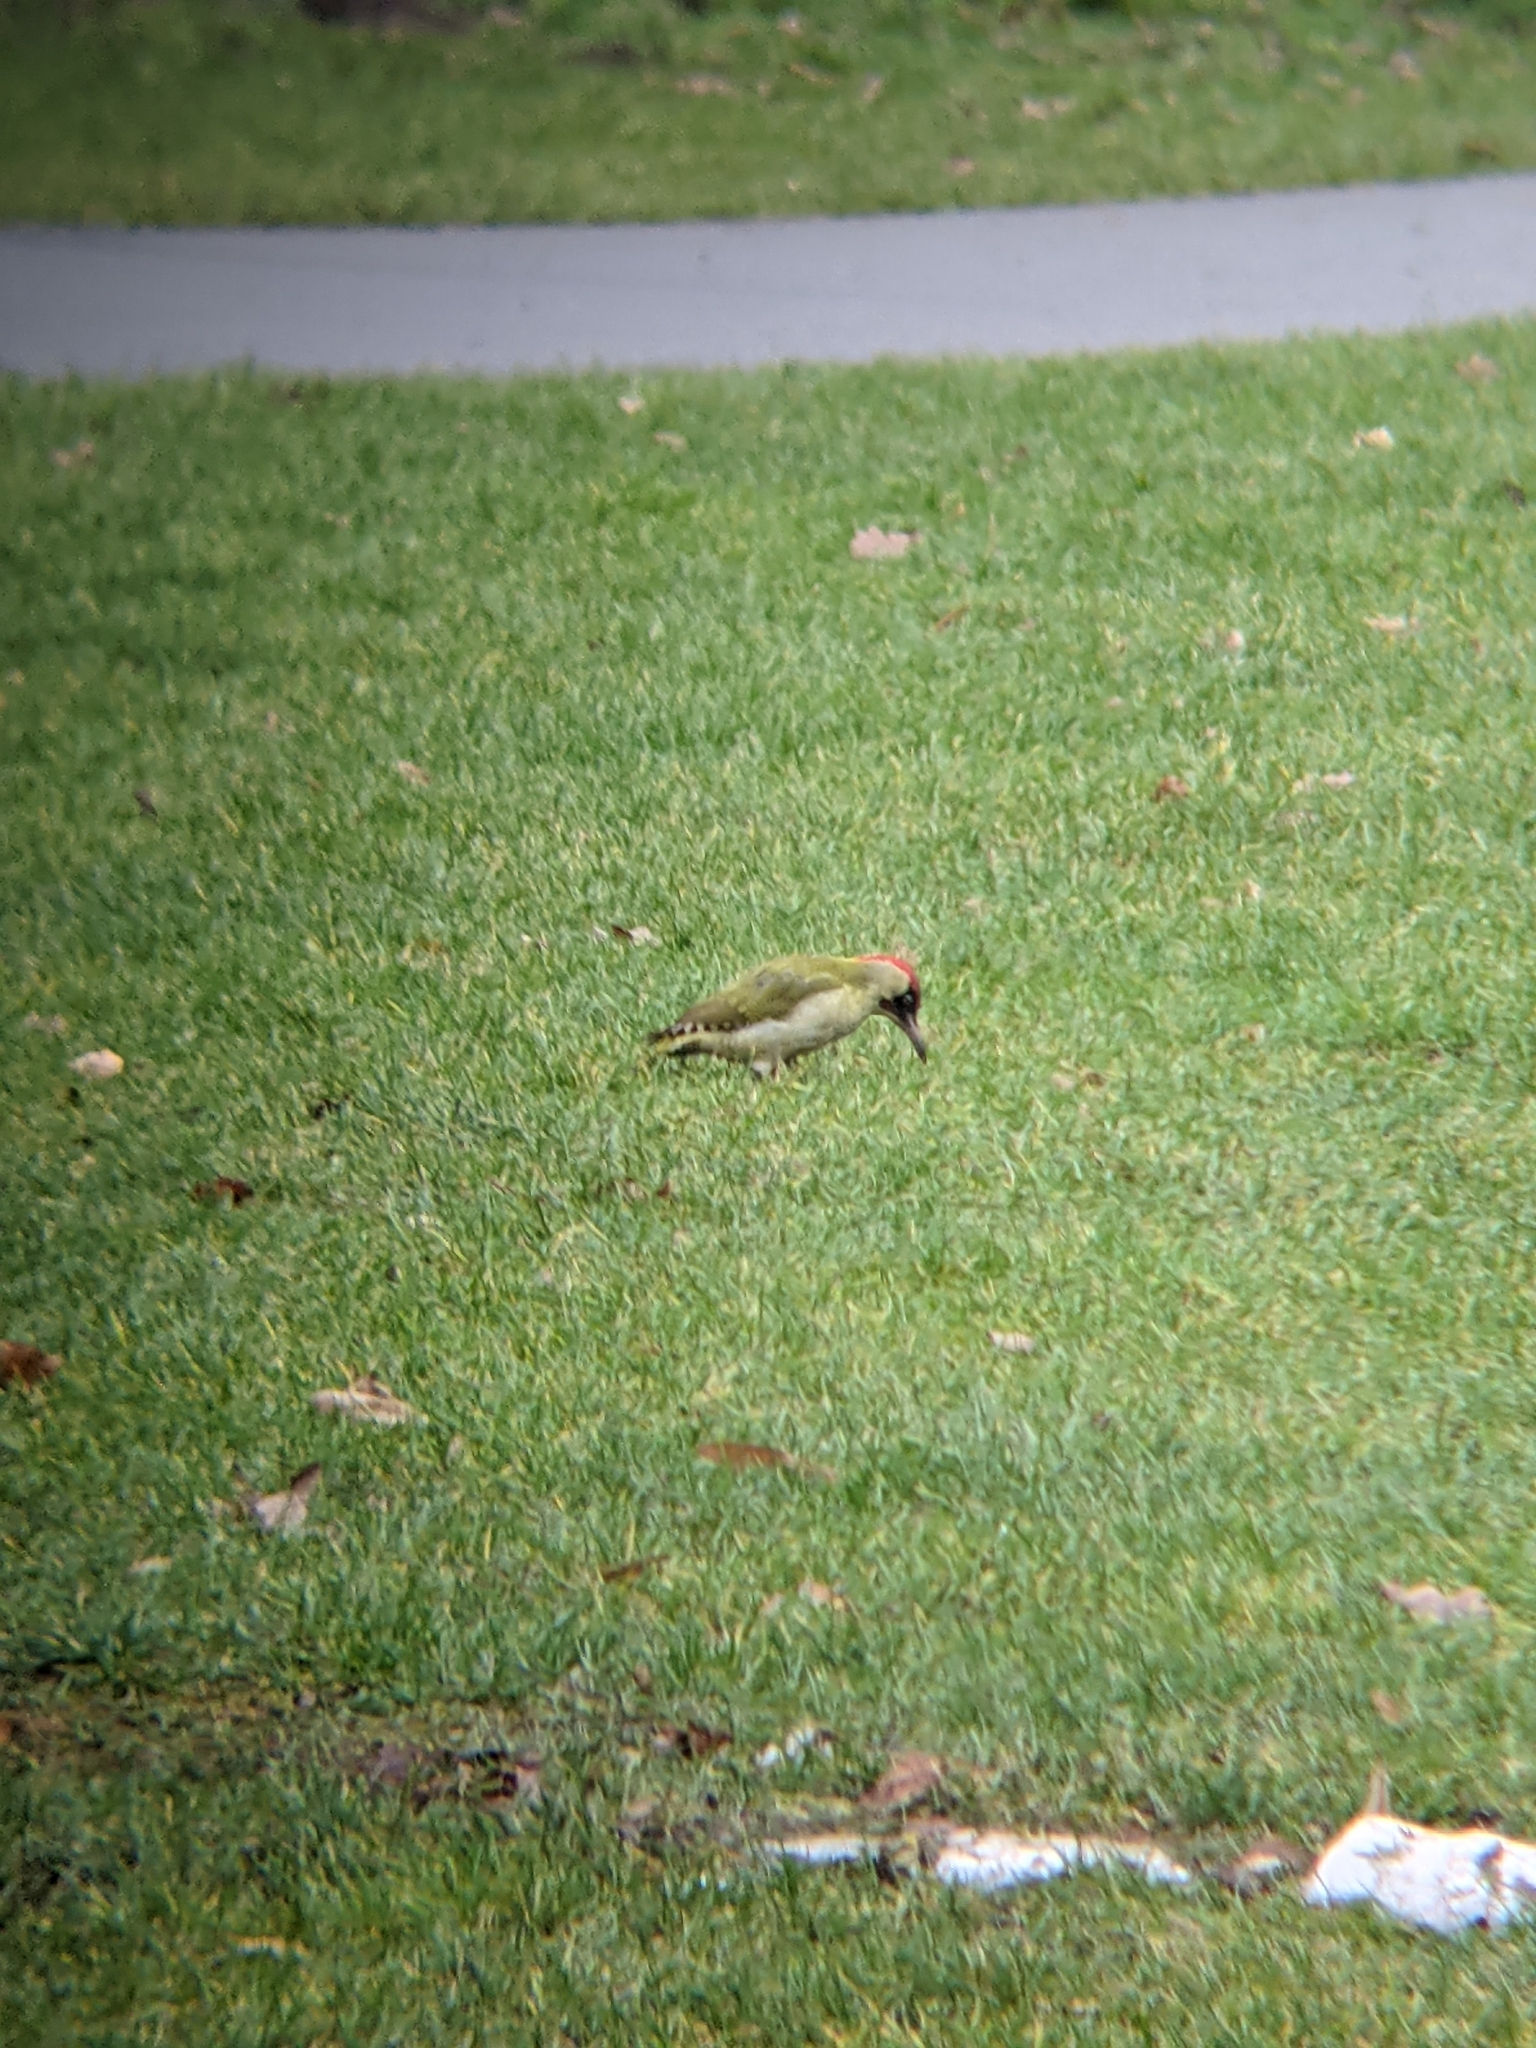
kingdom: Animalia
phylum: Chordata
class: Aves
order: Piciformes
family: Picidae
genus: Picus
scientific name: Picus viridis
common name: European green woodpecker
